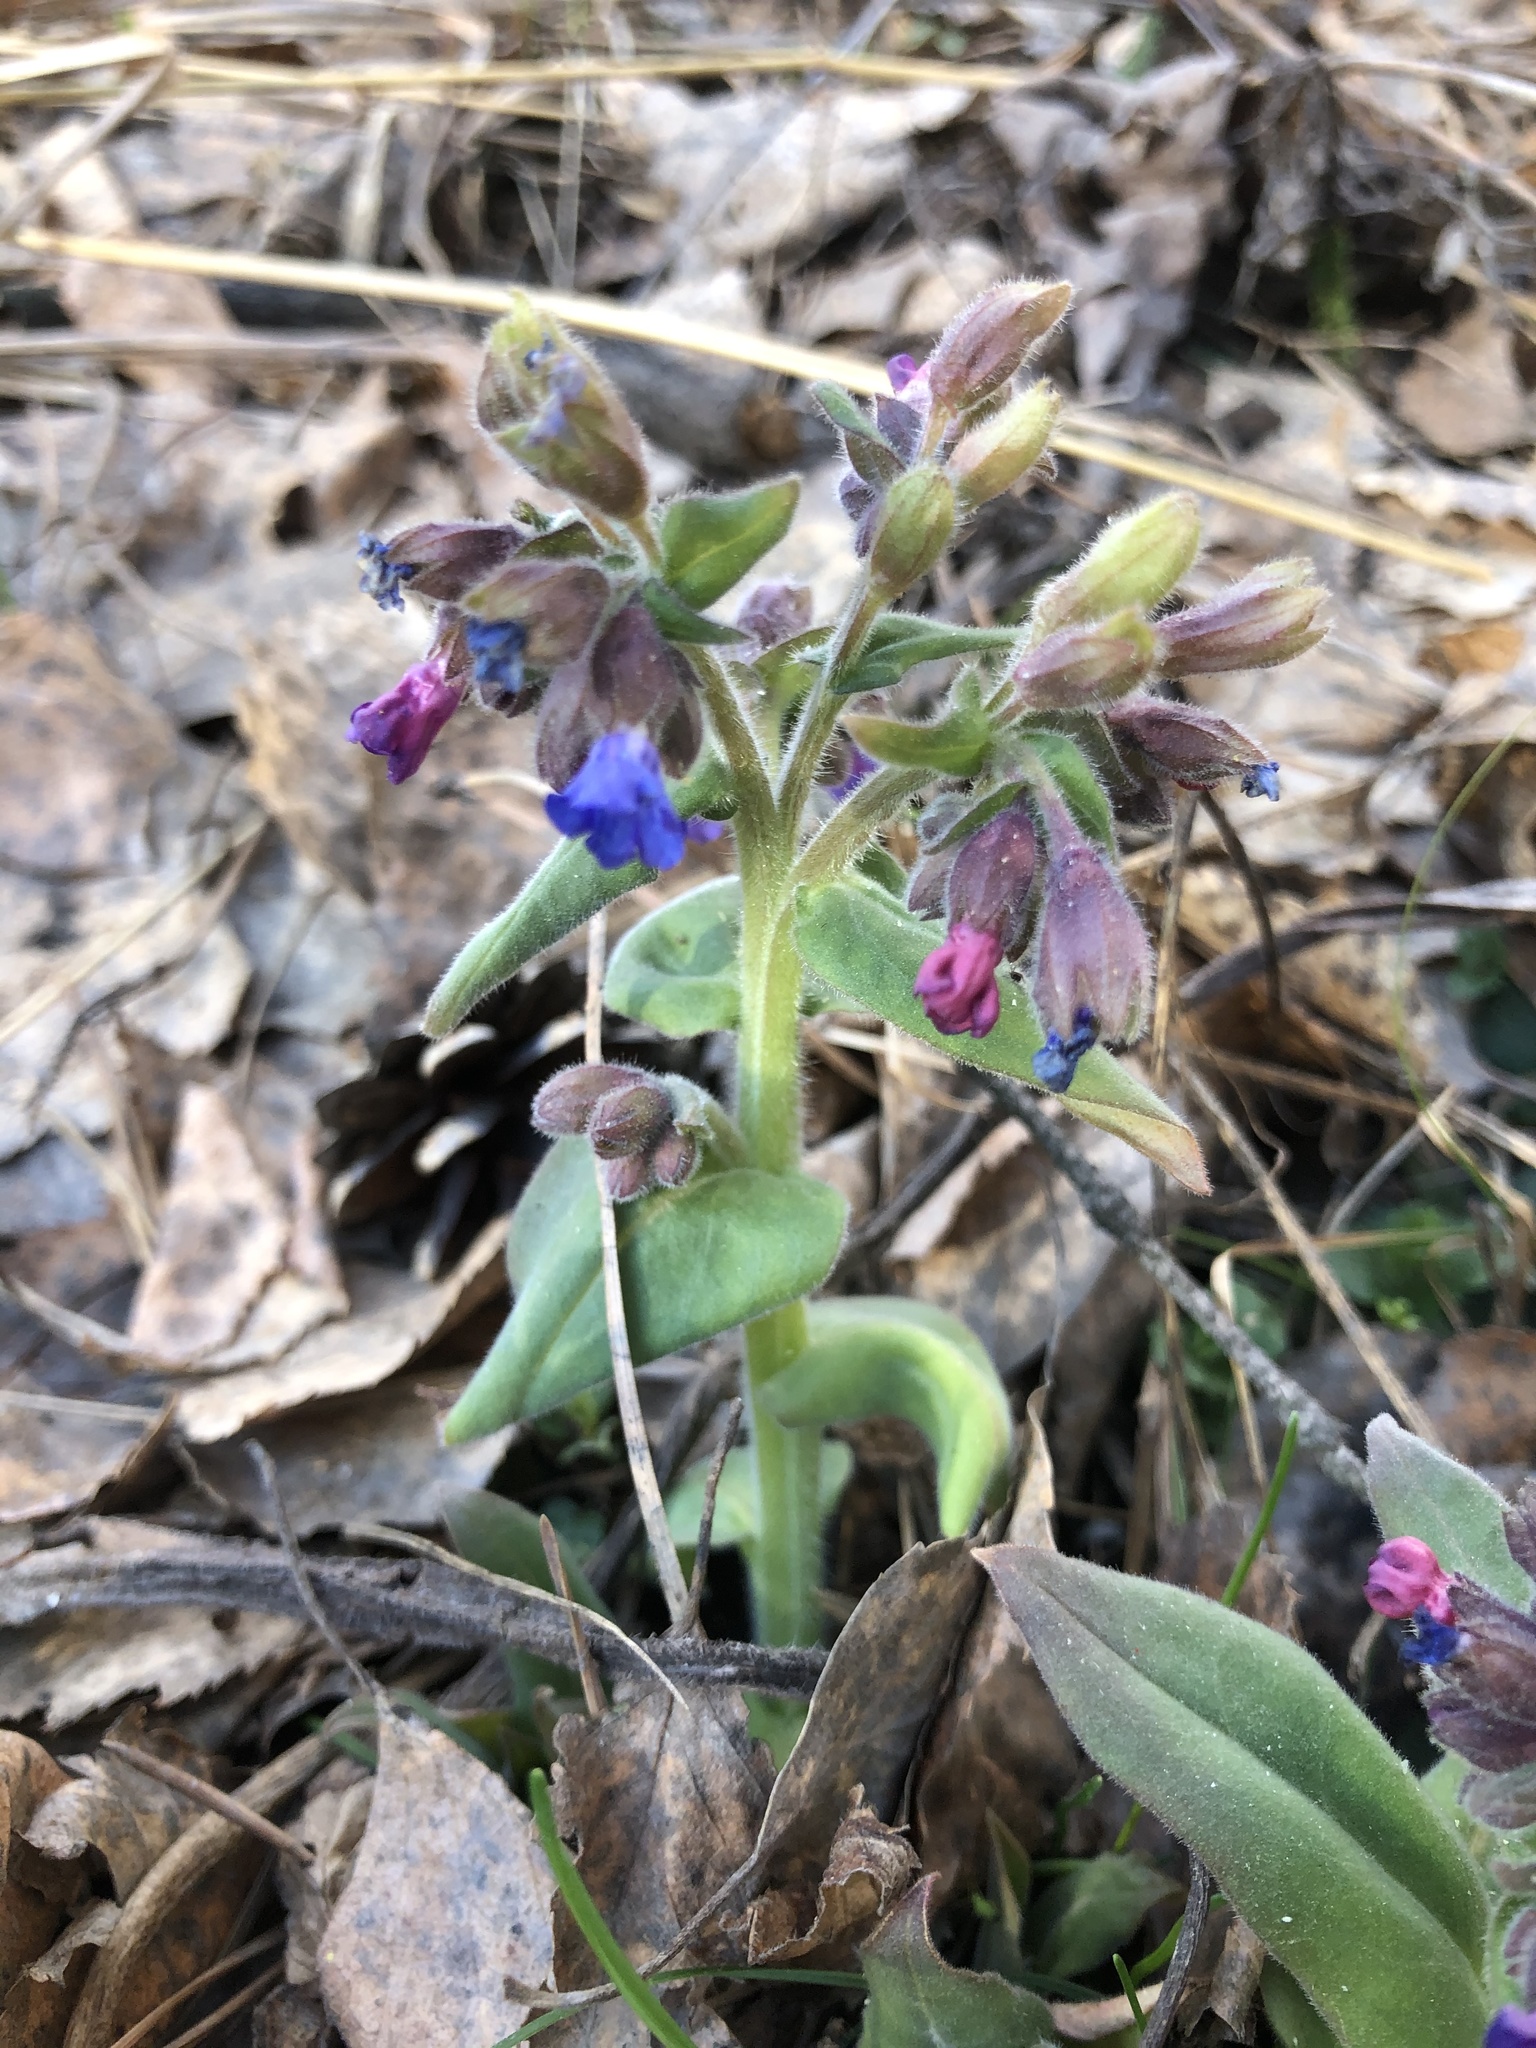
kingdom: Plantae
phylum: Tracheophyta
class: Magnoliopsida
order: Boraginales
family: Boraginaceae
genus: Pulmonaria
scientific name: Pulmonaria mollis
